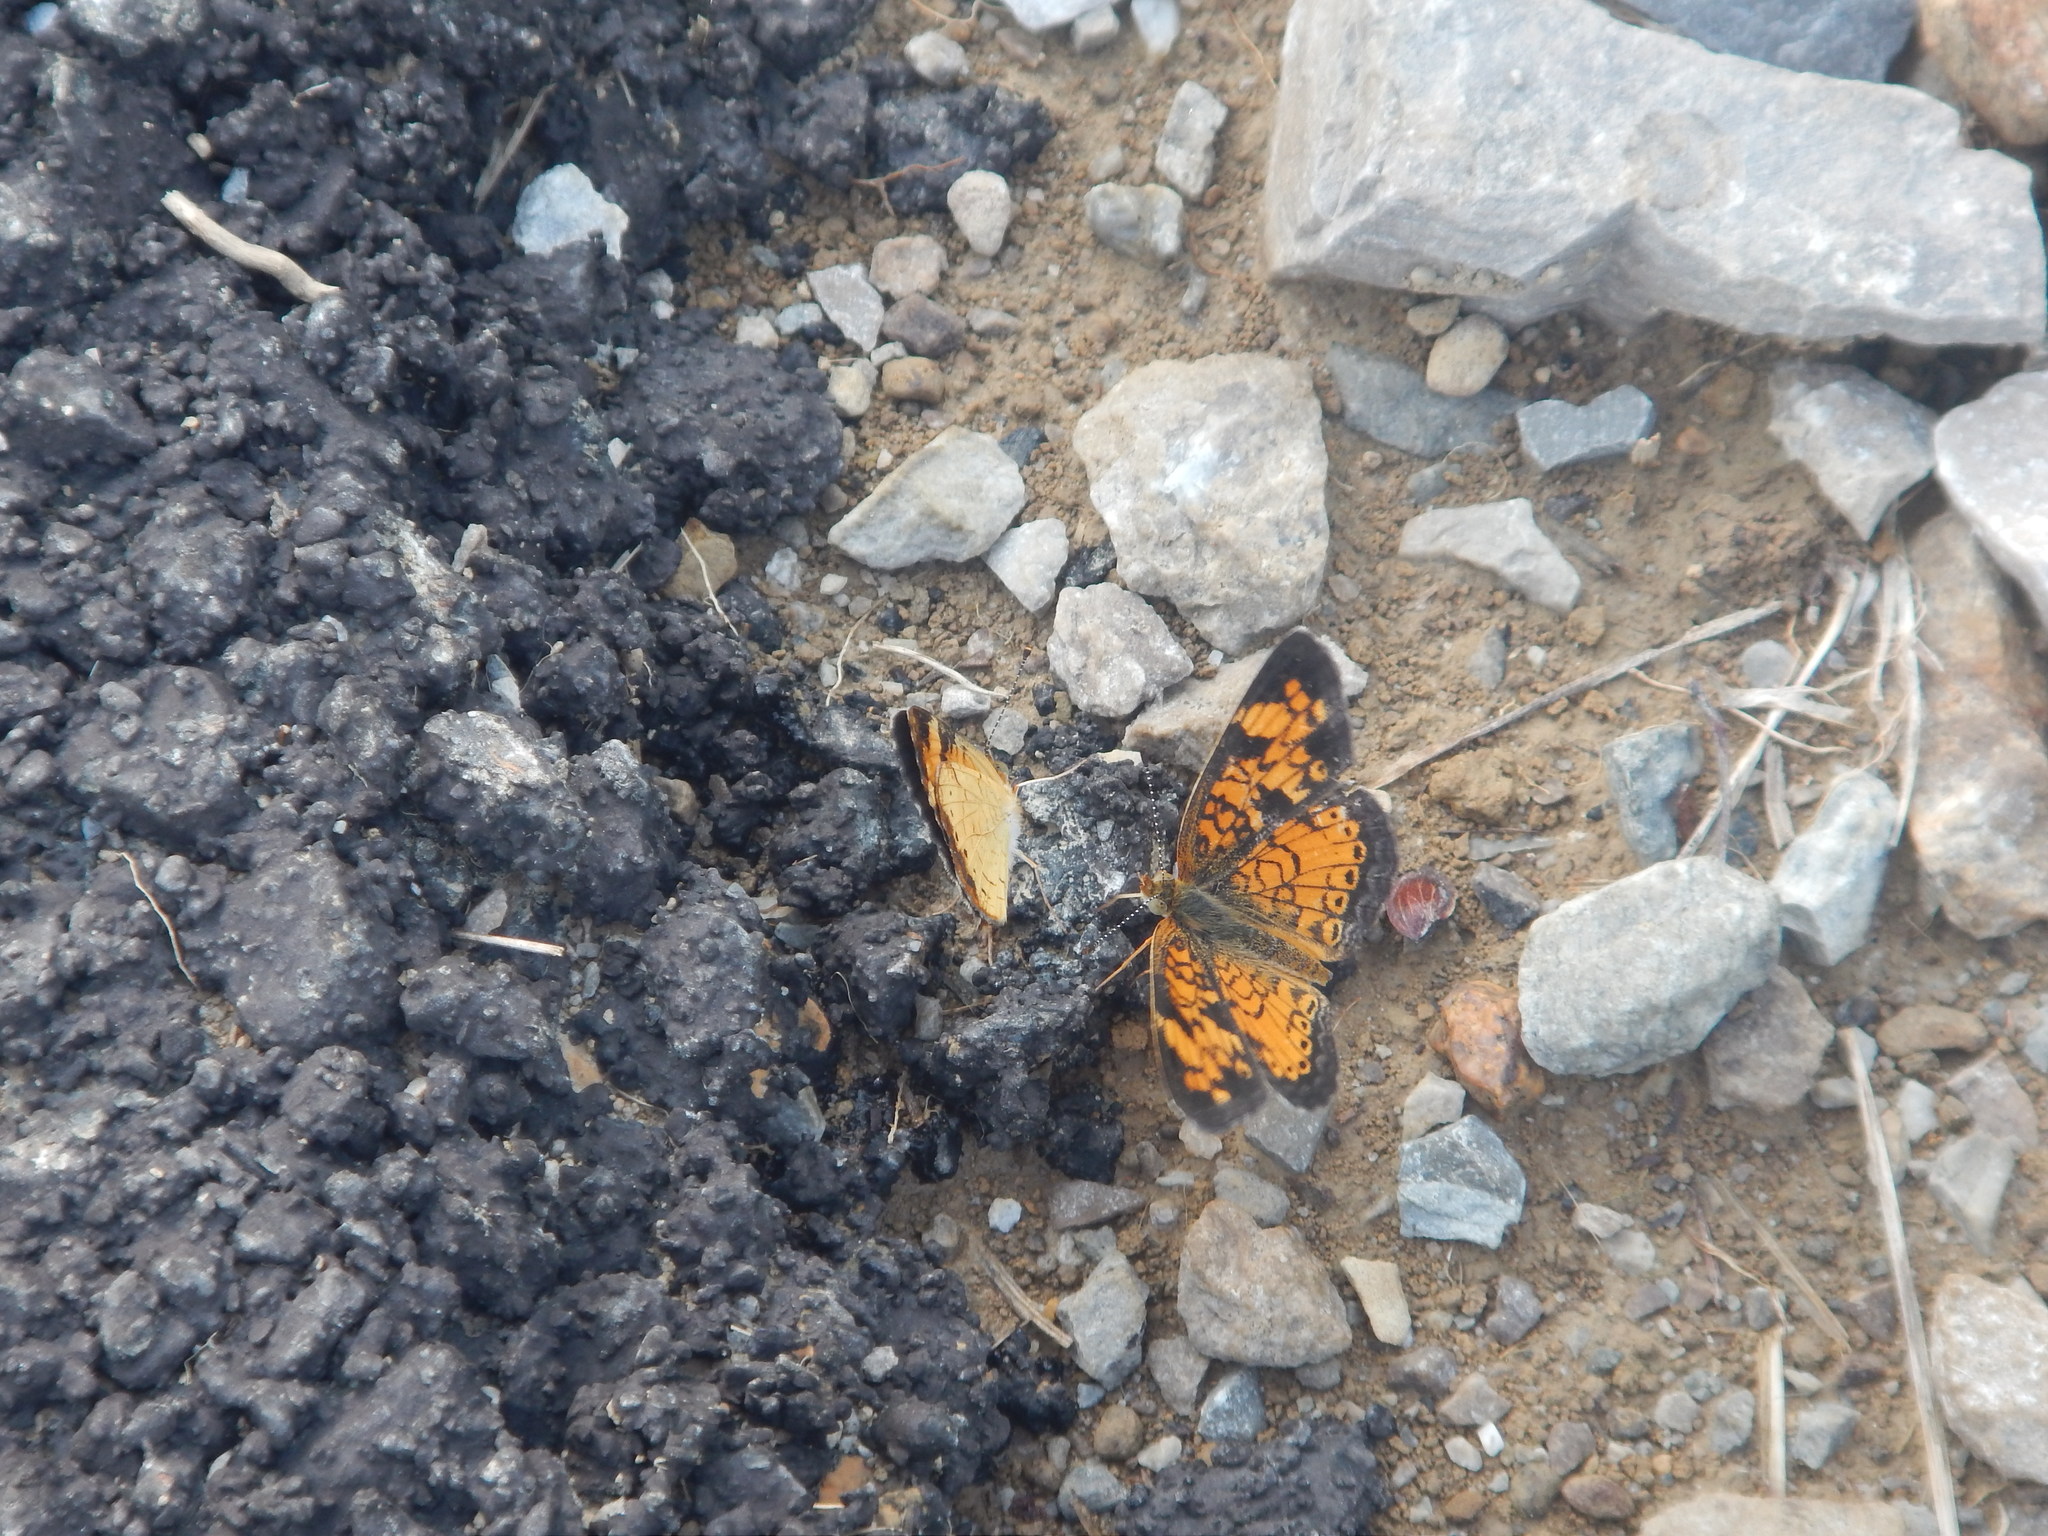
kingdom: Animalia
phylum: Arthropoda
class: Insecta
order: Lepidoptera
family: Nymphalidae
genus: Phyciodes
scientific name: Phyciodes tharos
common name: Pearl crescent
